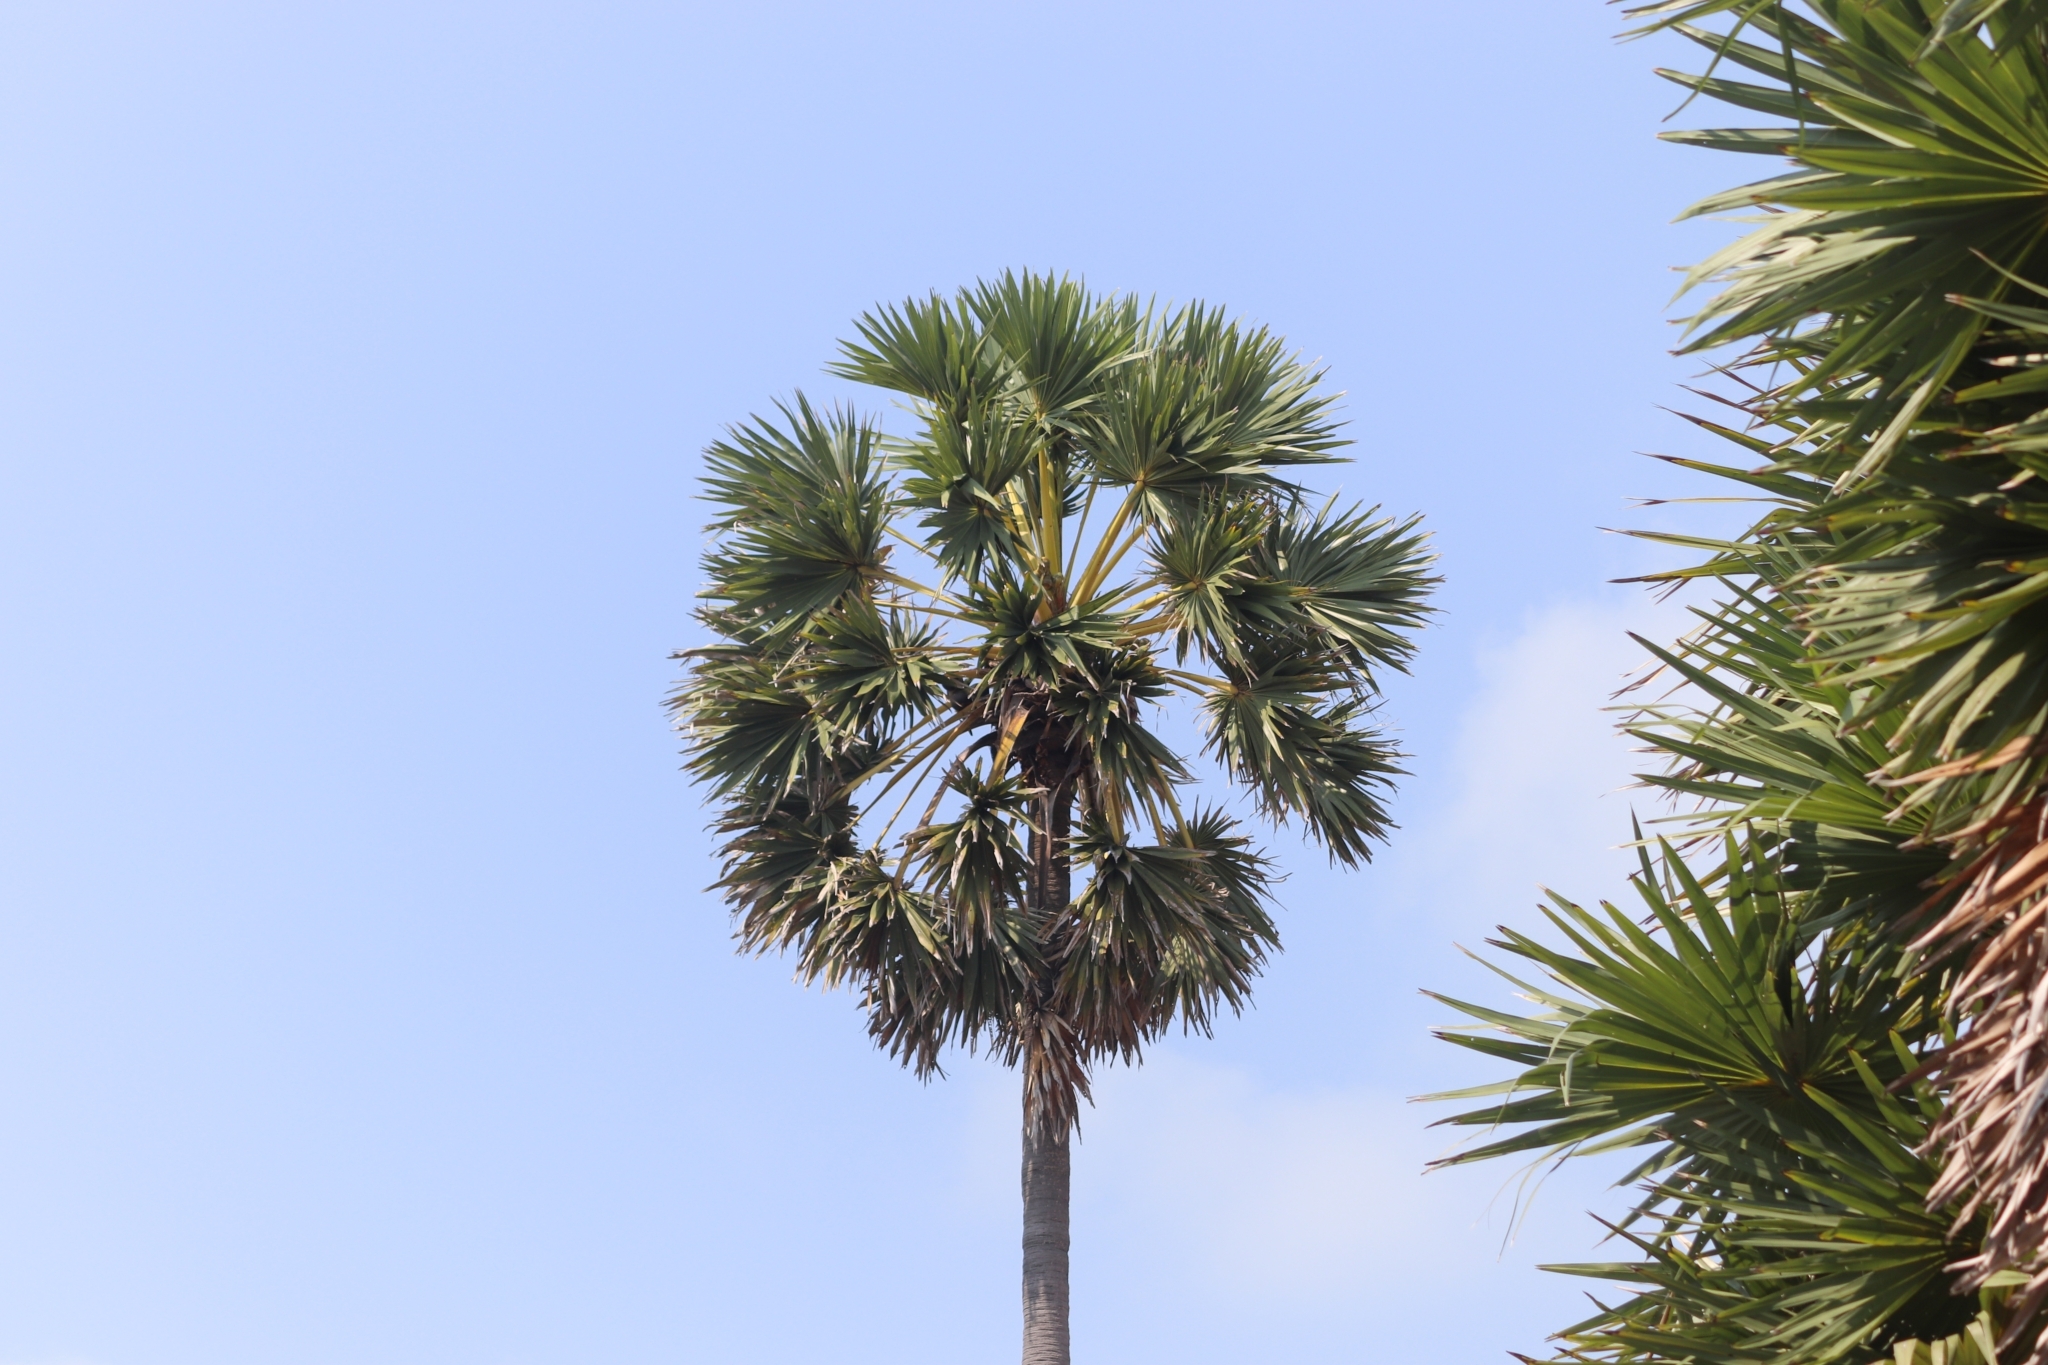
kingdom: Plantae
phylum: Tracheophyta
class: Liliopsida
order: Arecales
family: Arecaceae
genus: Borassus
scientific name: Borassus flabellifer
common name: Palmyra palm
